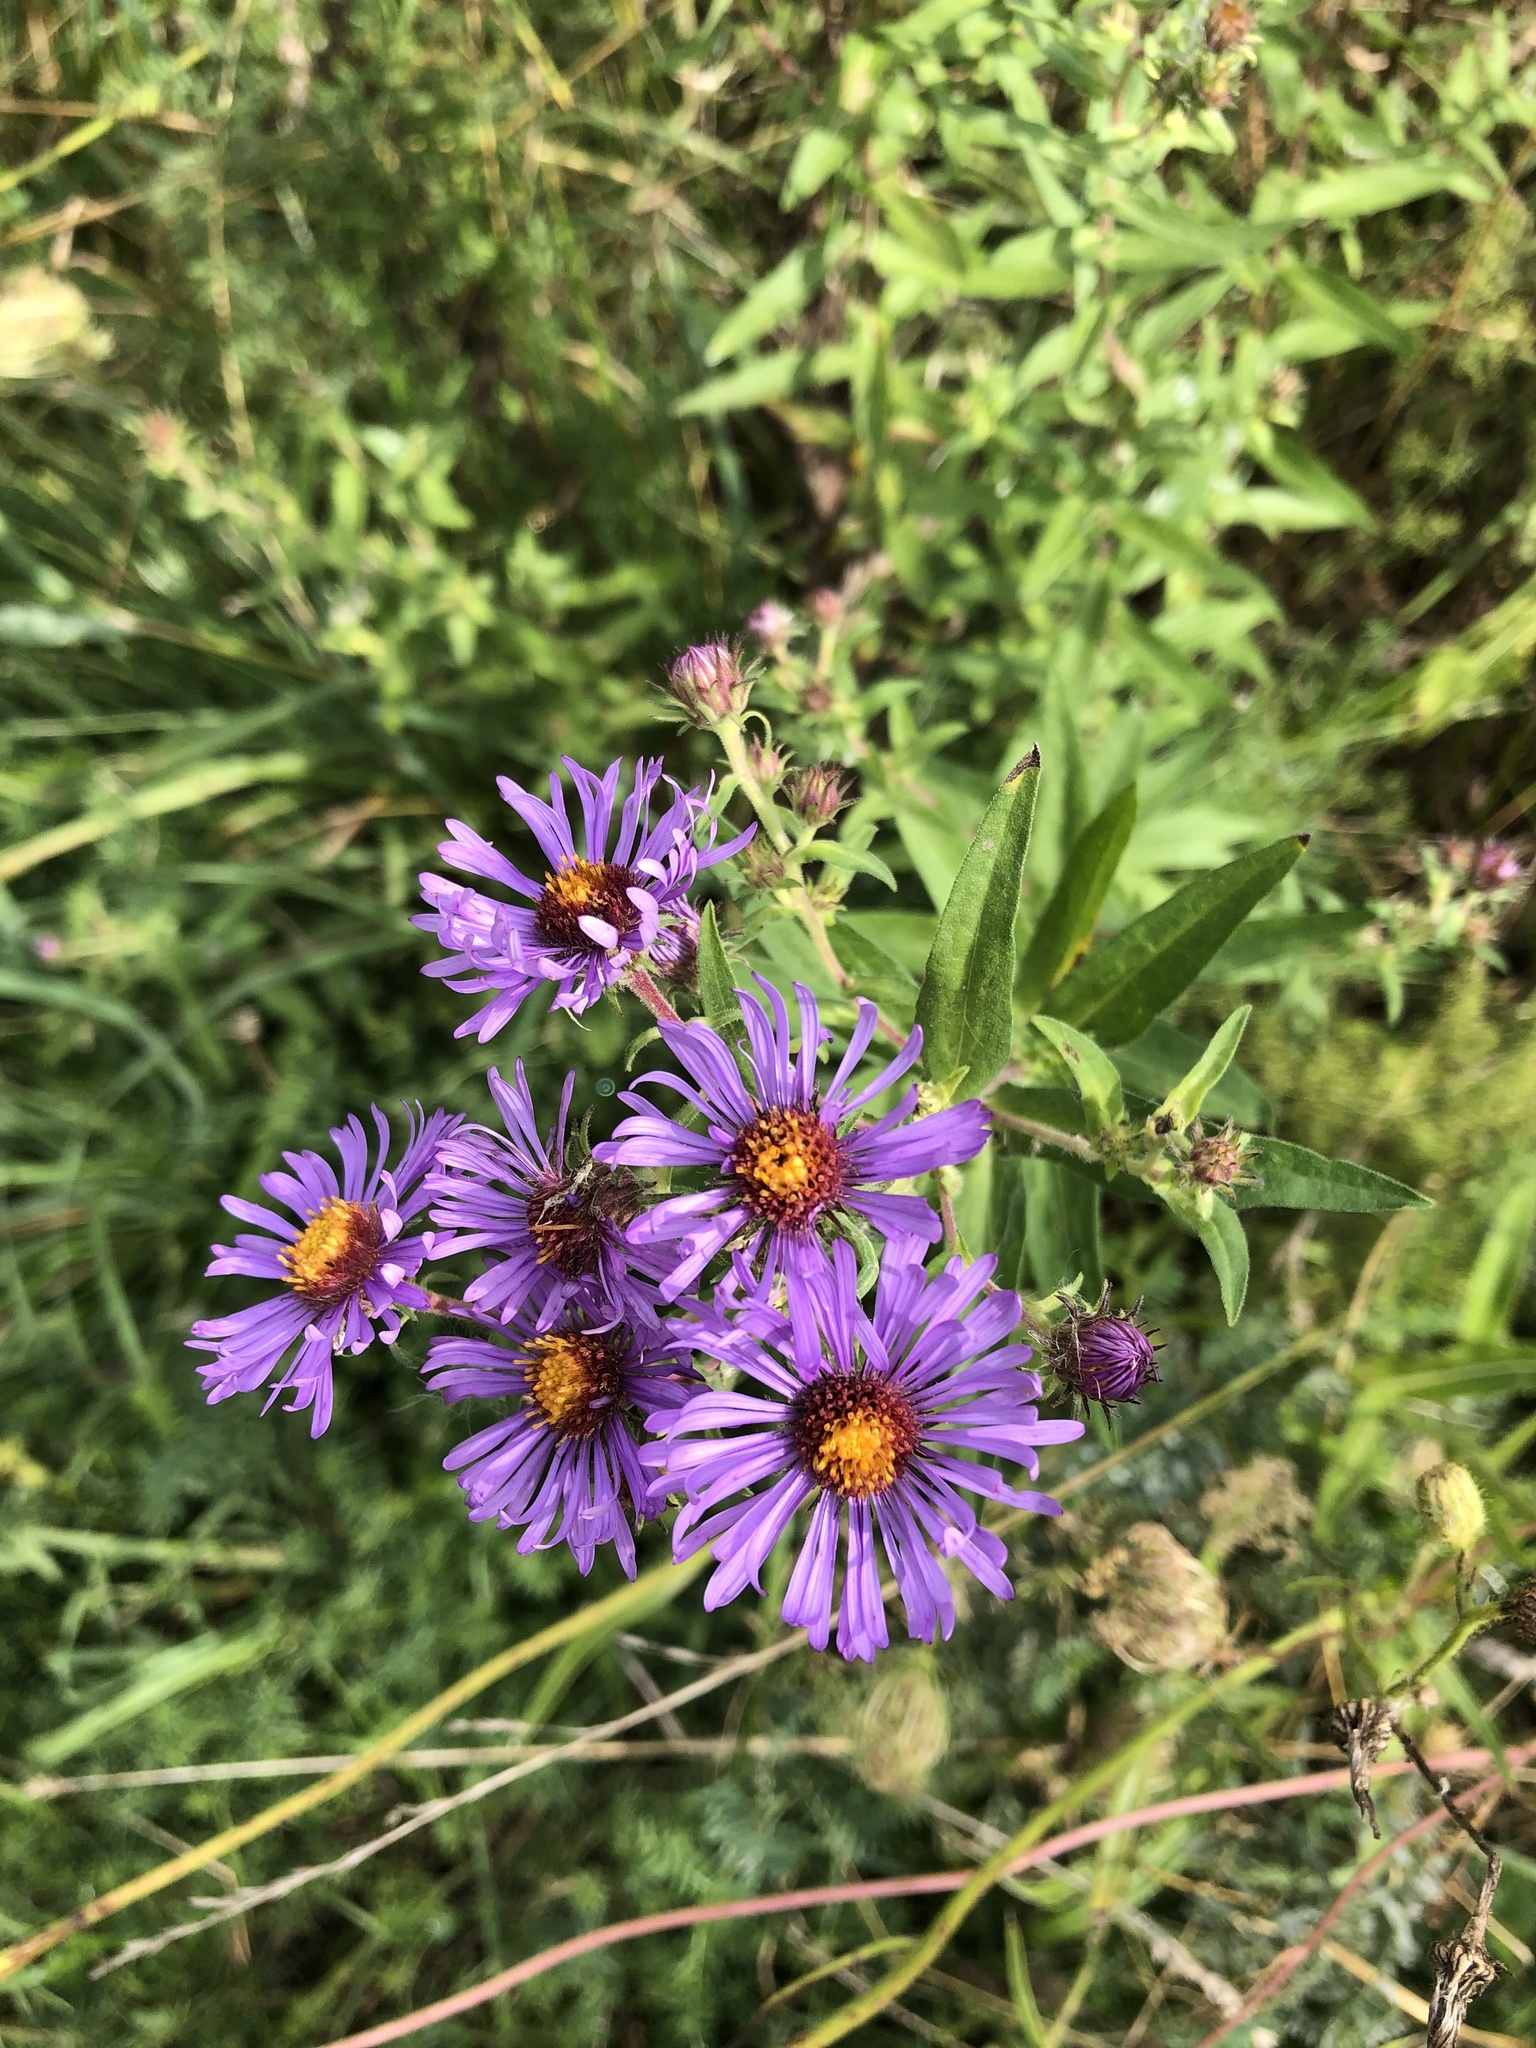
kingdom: Plantae
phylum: Tracheophyta
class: Magnoliopsida
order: Asterales
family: Asteraceae
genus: Symphyotrichum
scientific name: Symphyotrichum novae-angliae
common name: Michaelmas daisy
